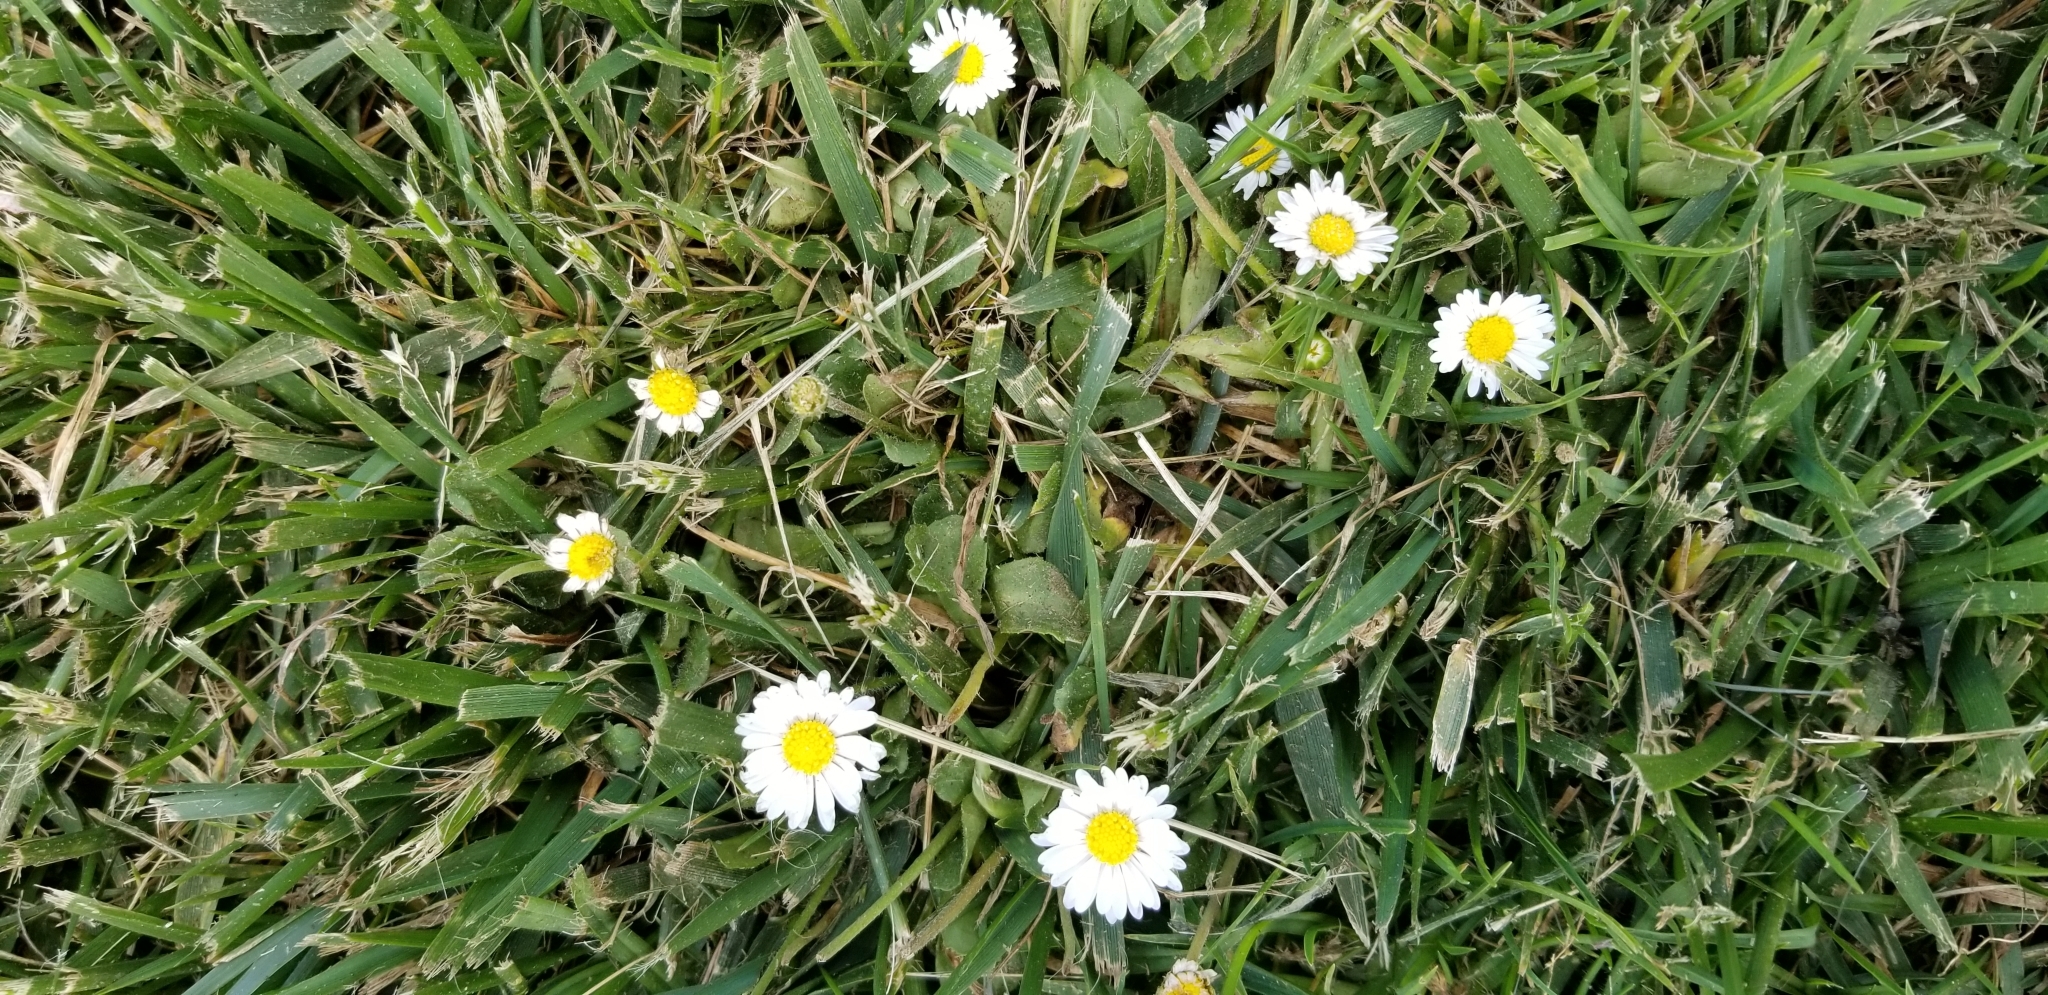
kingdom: Plantae
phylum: Tracheophyta
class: Magnoliopsida
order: Asterales
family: Asteraceae
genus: Bellis
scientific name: Bellis perennis
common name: Lawndaisy
